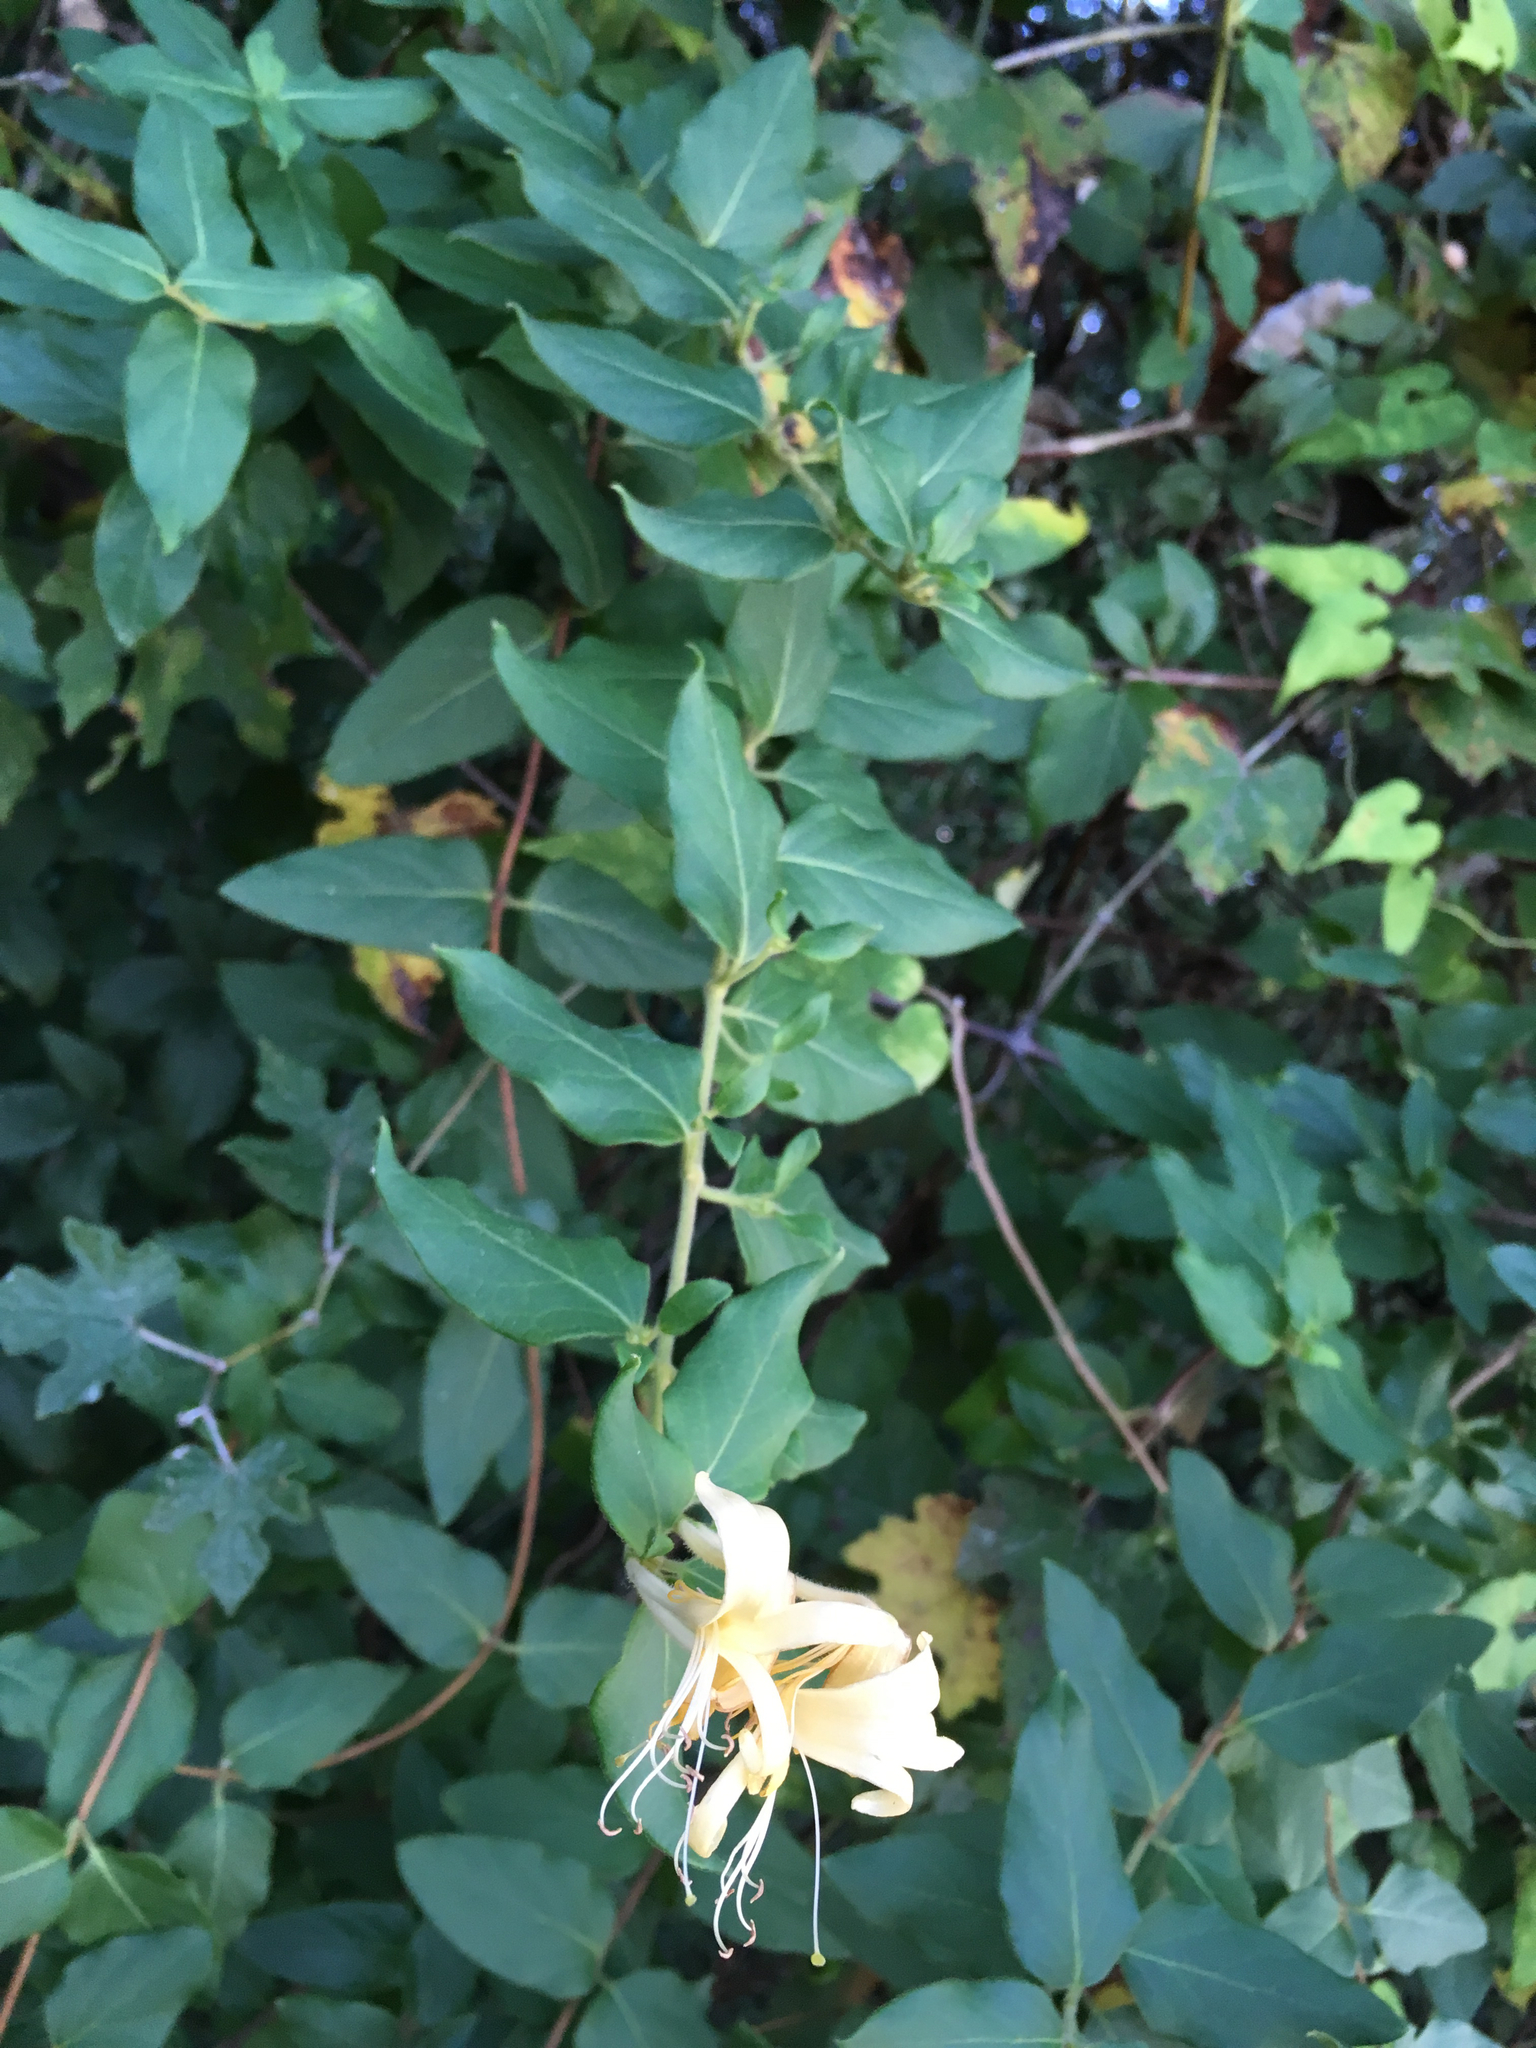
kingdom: Plantae
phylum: Tracheophyta
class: Magnoliopsida
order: Dipsacales
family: Caprifoliaceae
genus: Lonicera
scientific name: Lonicera japonica
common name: Japanese honeysuckle
